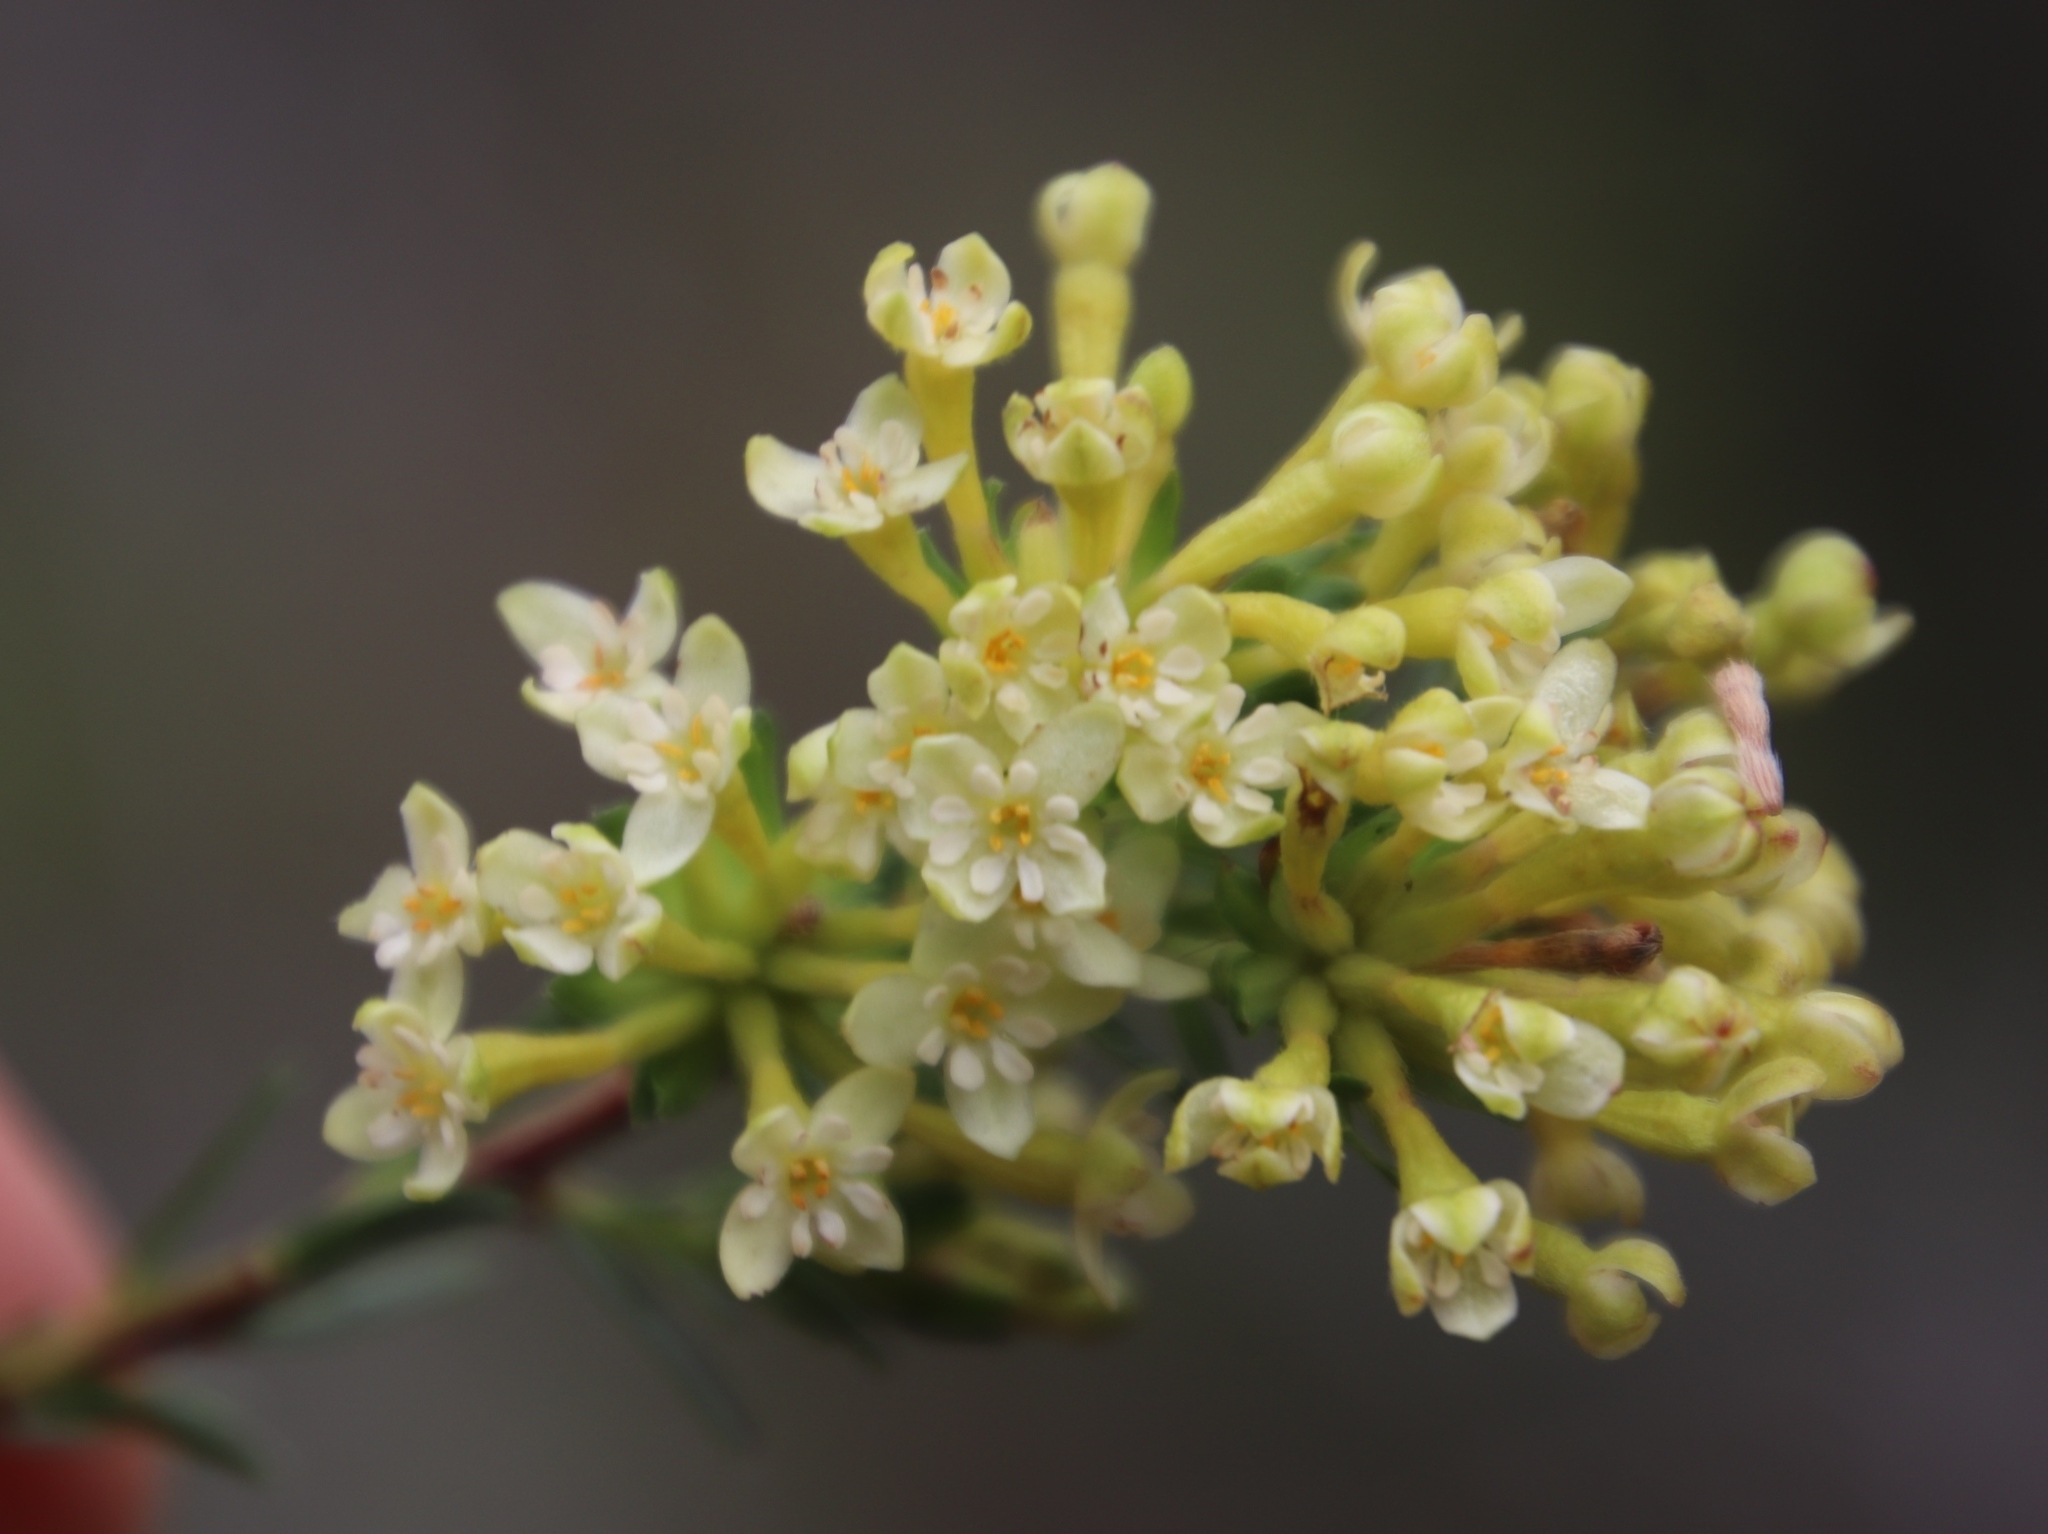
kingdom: Plantae
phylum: Tracheophyta
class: Magnoliopsida
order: Malvales
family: Thymelaeaceae
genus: Gnidia
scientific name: Gnidia squarrosa
